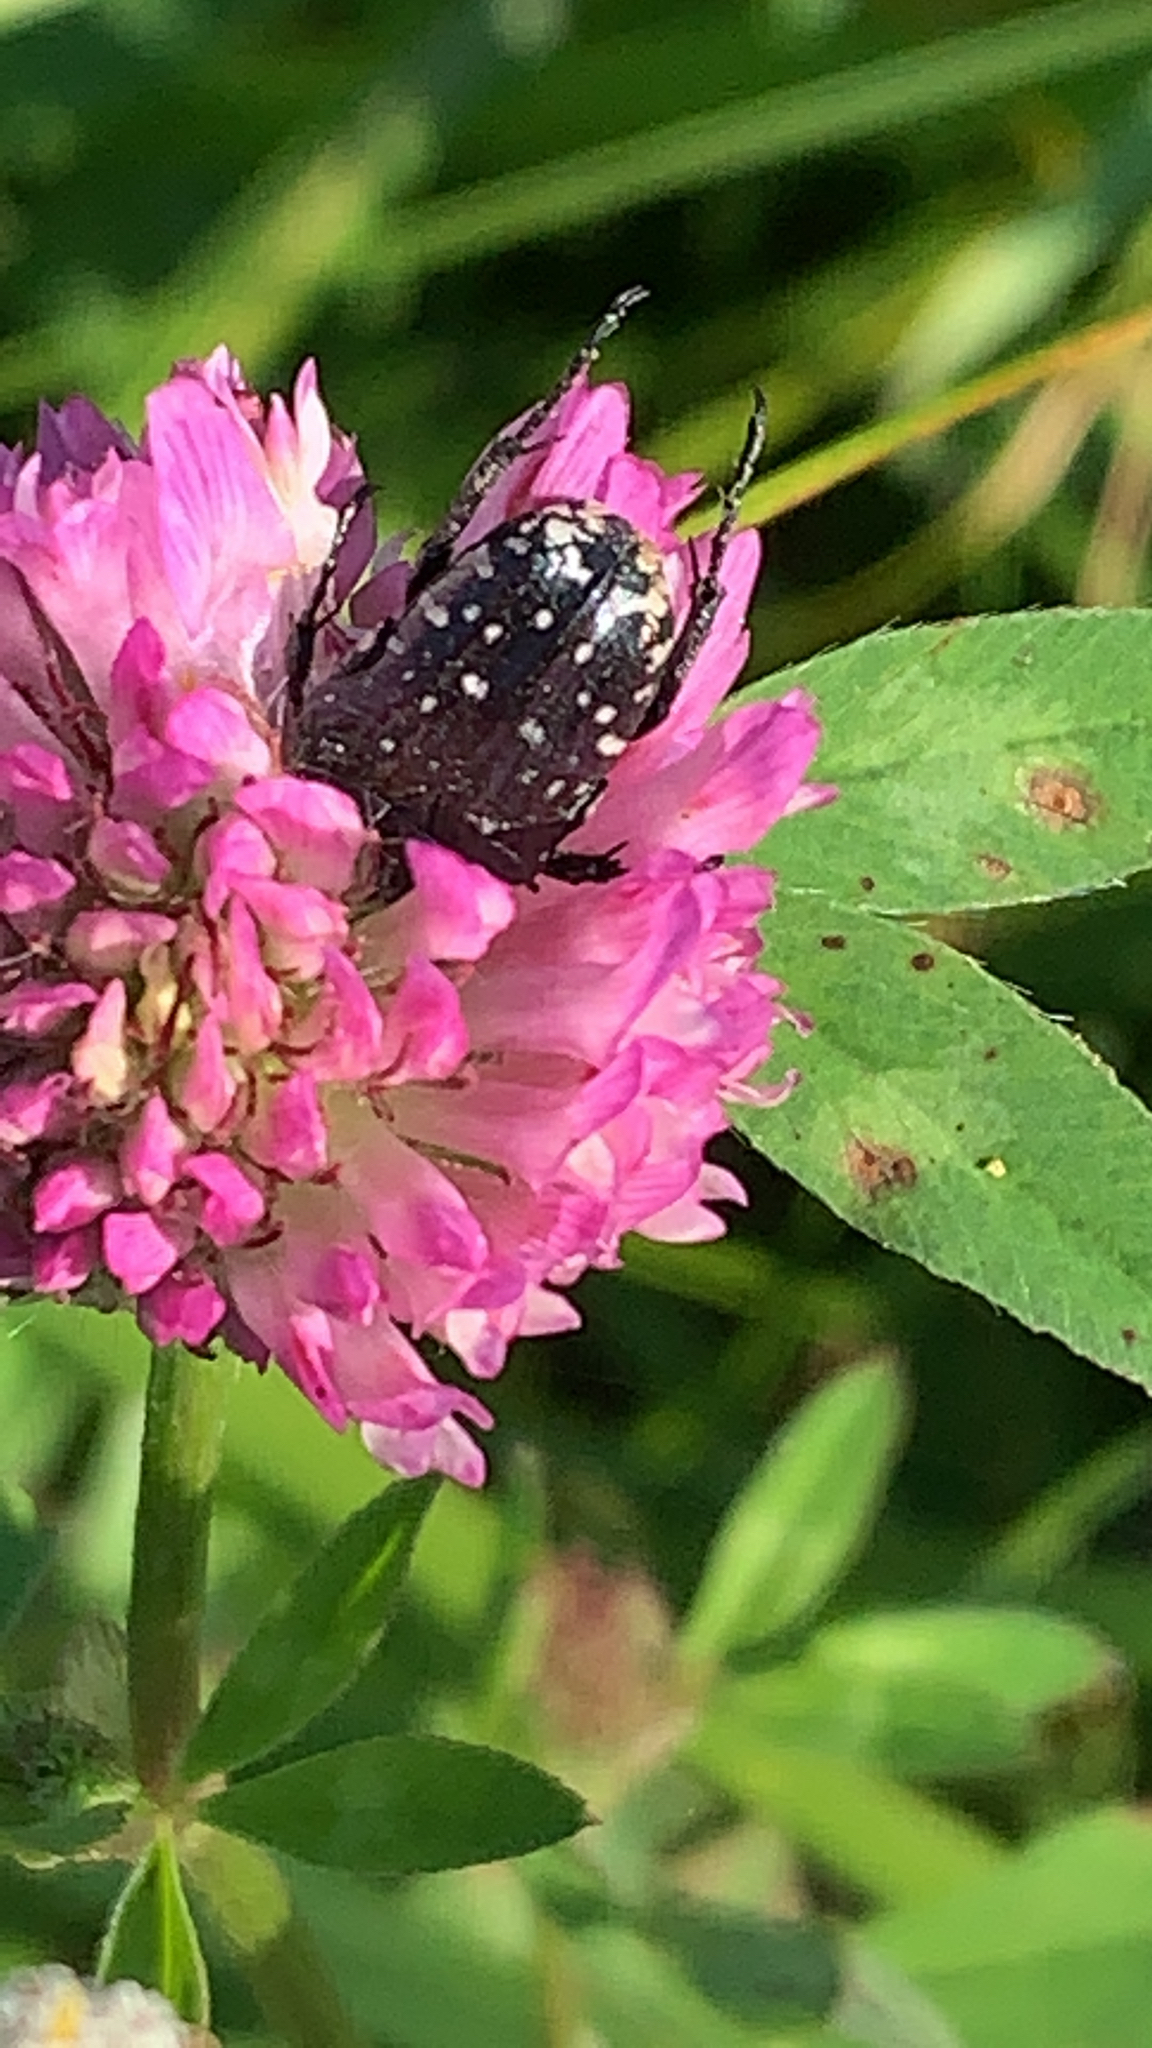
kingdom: Animalia
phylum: Arthropoda
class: Insecta
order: Coleoptera
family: Scarabaeidae
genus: Oxythyrea
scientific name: Oxythyrea funesta
